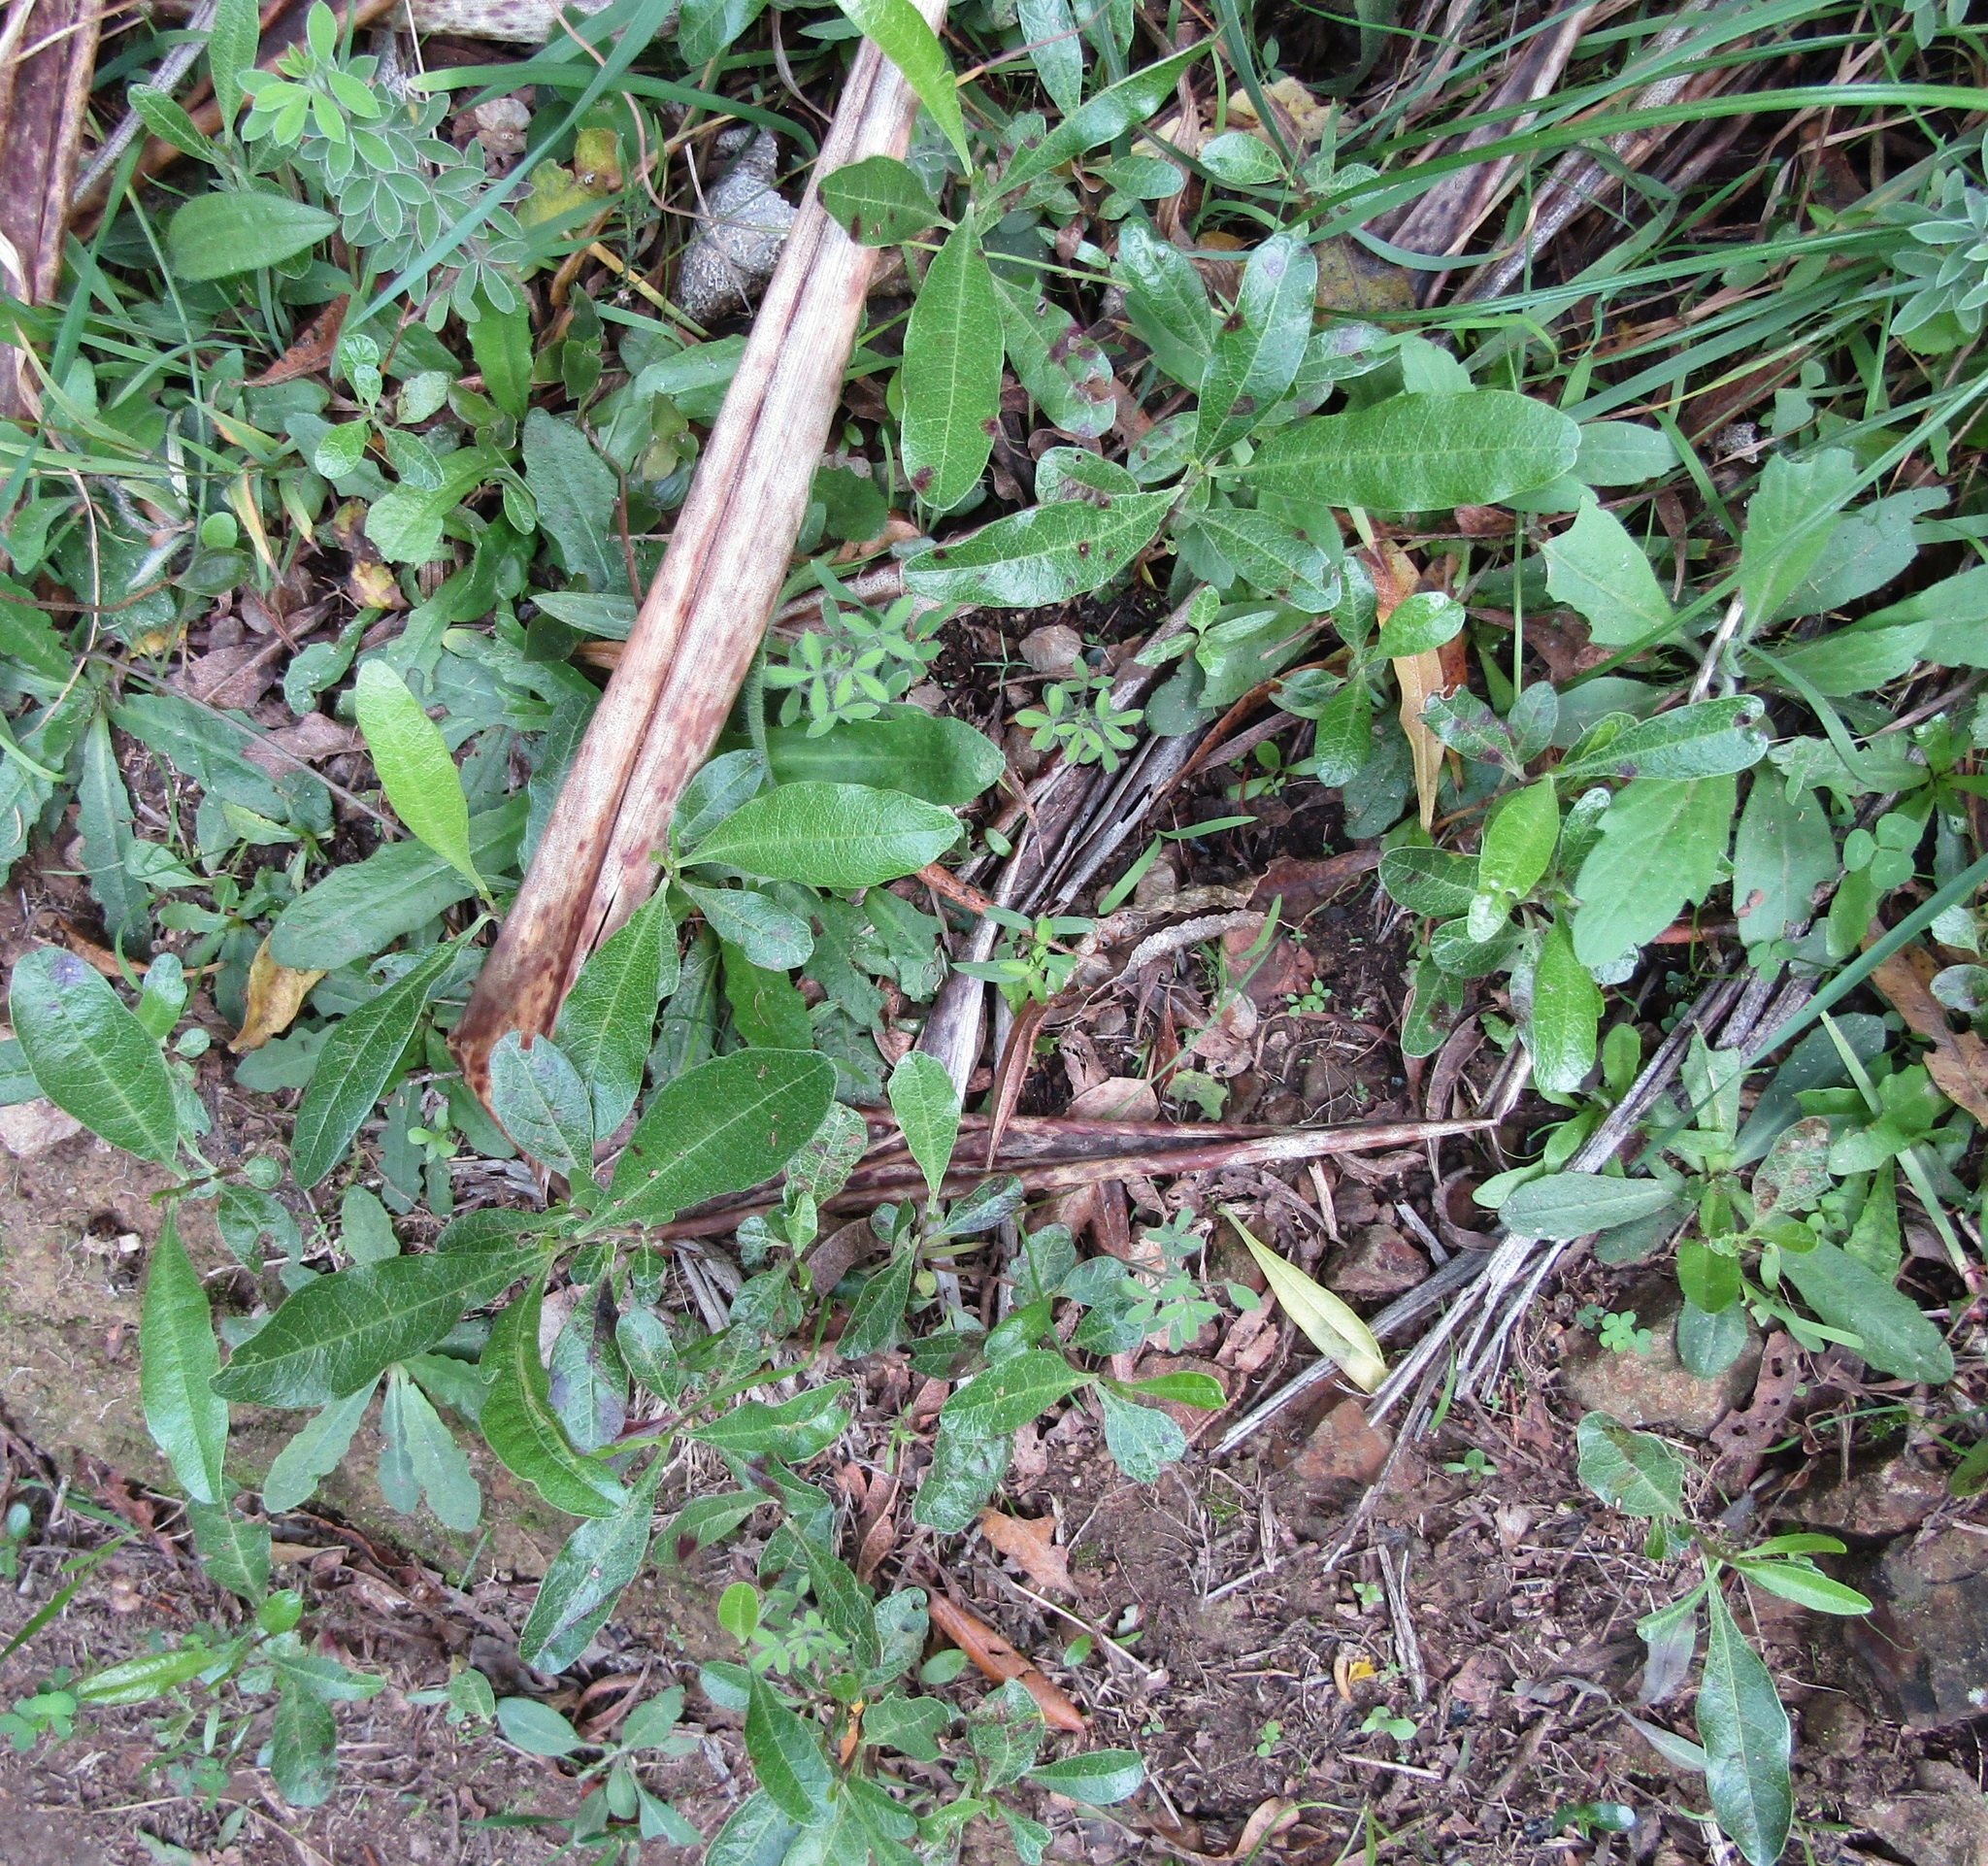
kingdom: Plantae
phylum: Tracheophyta
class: Magnoliopsida
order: Sapindales
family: Sapindaceae
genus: Dodonaea
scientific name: Dodonaea viscosa
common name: Hopbush
